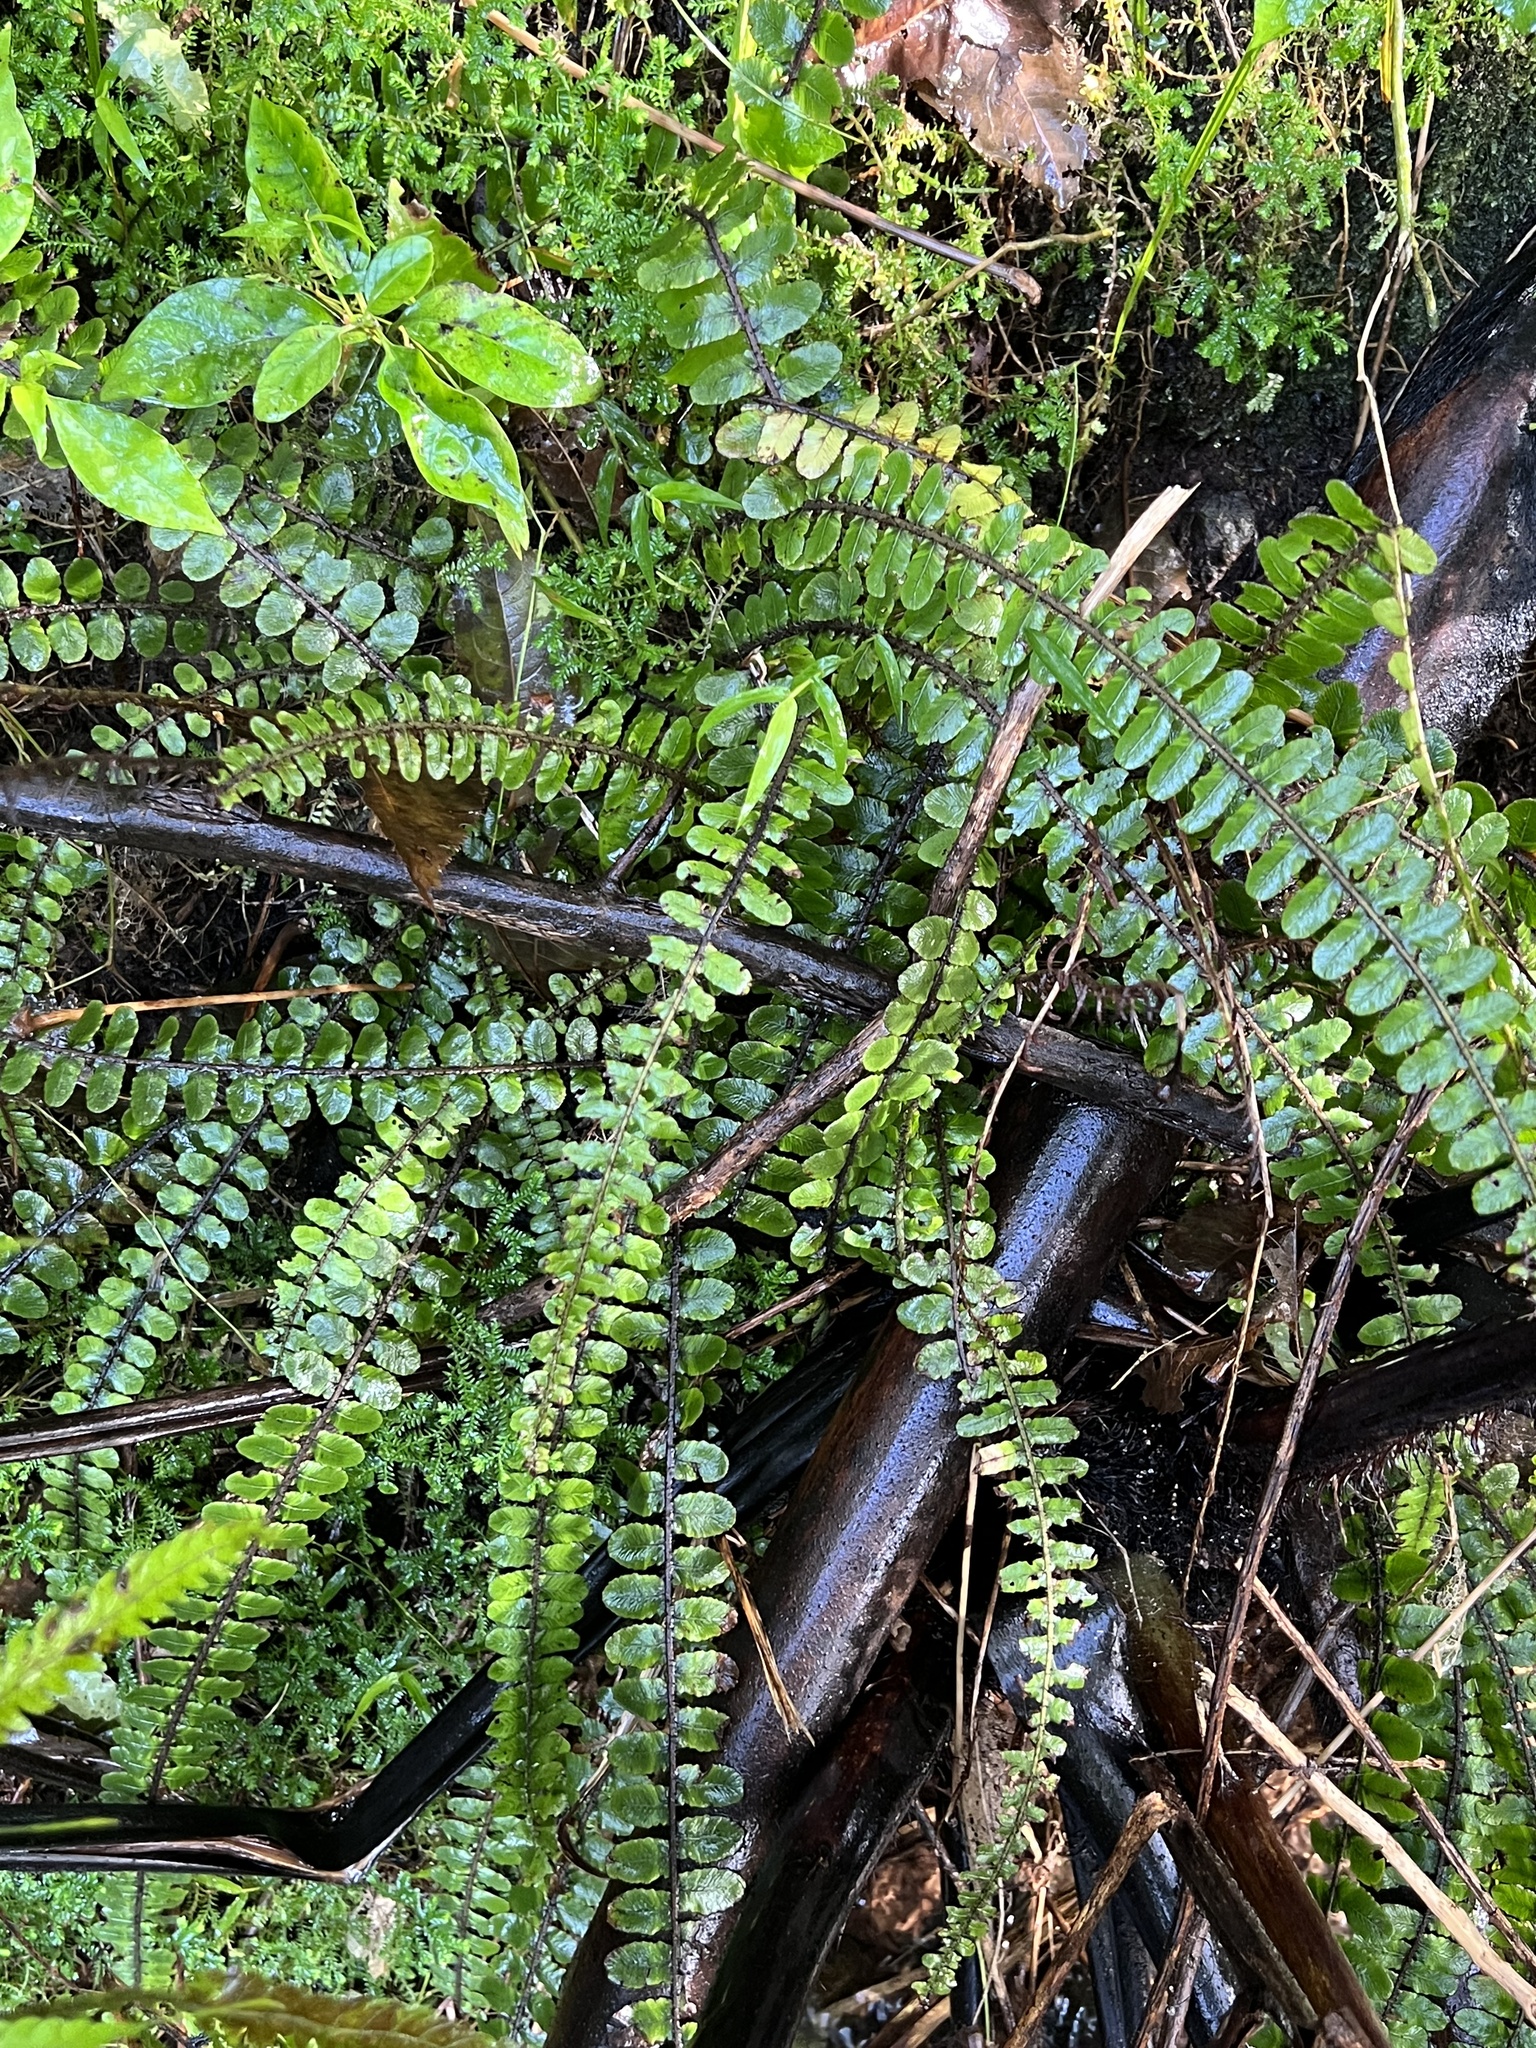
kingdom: Plantae
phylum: Tracheophyta
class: Polypodiopsida
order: Polypodiales
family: Blechnaceae
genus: Cranfillia
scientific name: Cranfillia fluviatilis
